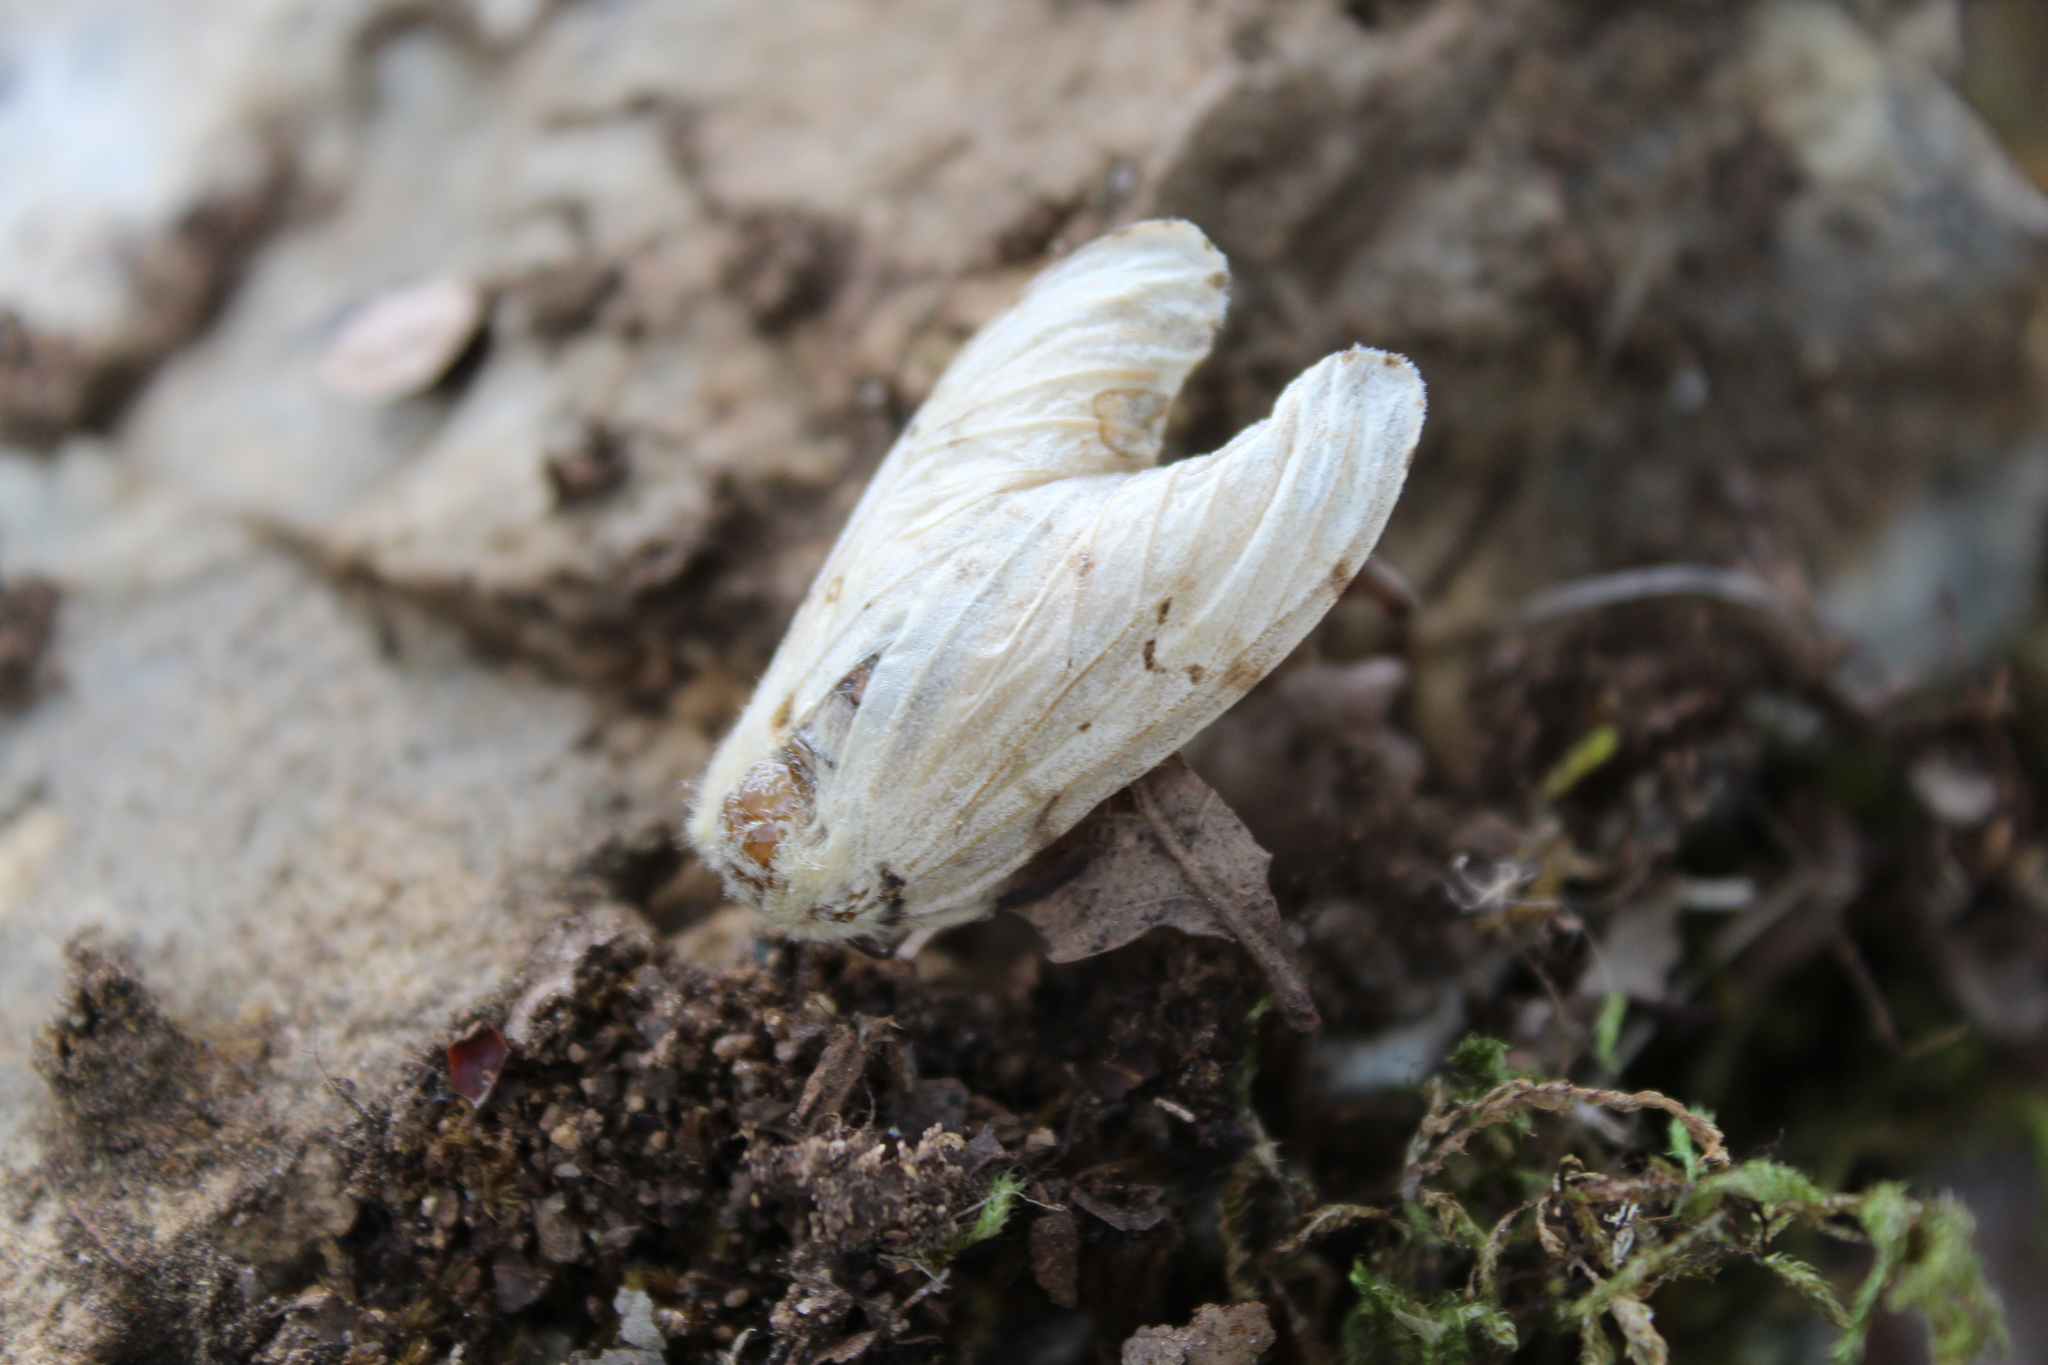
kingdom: Animalia
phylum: Arthropoda
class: Insecta
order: Lepidoptera
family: Erebidae
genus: Lymantria
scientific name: Lymantria dispar
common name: Gypsy moth
